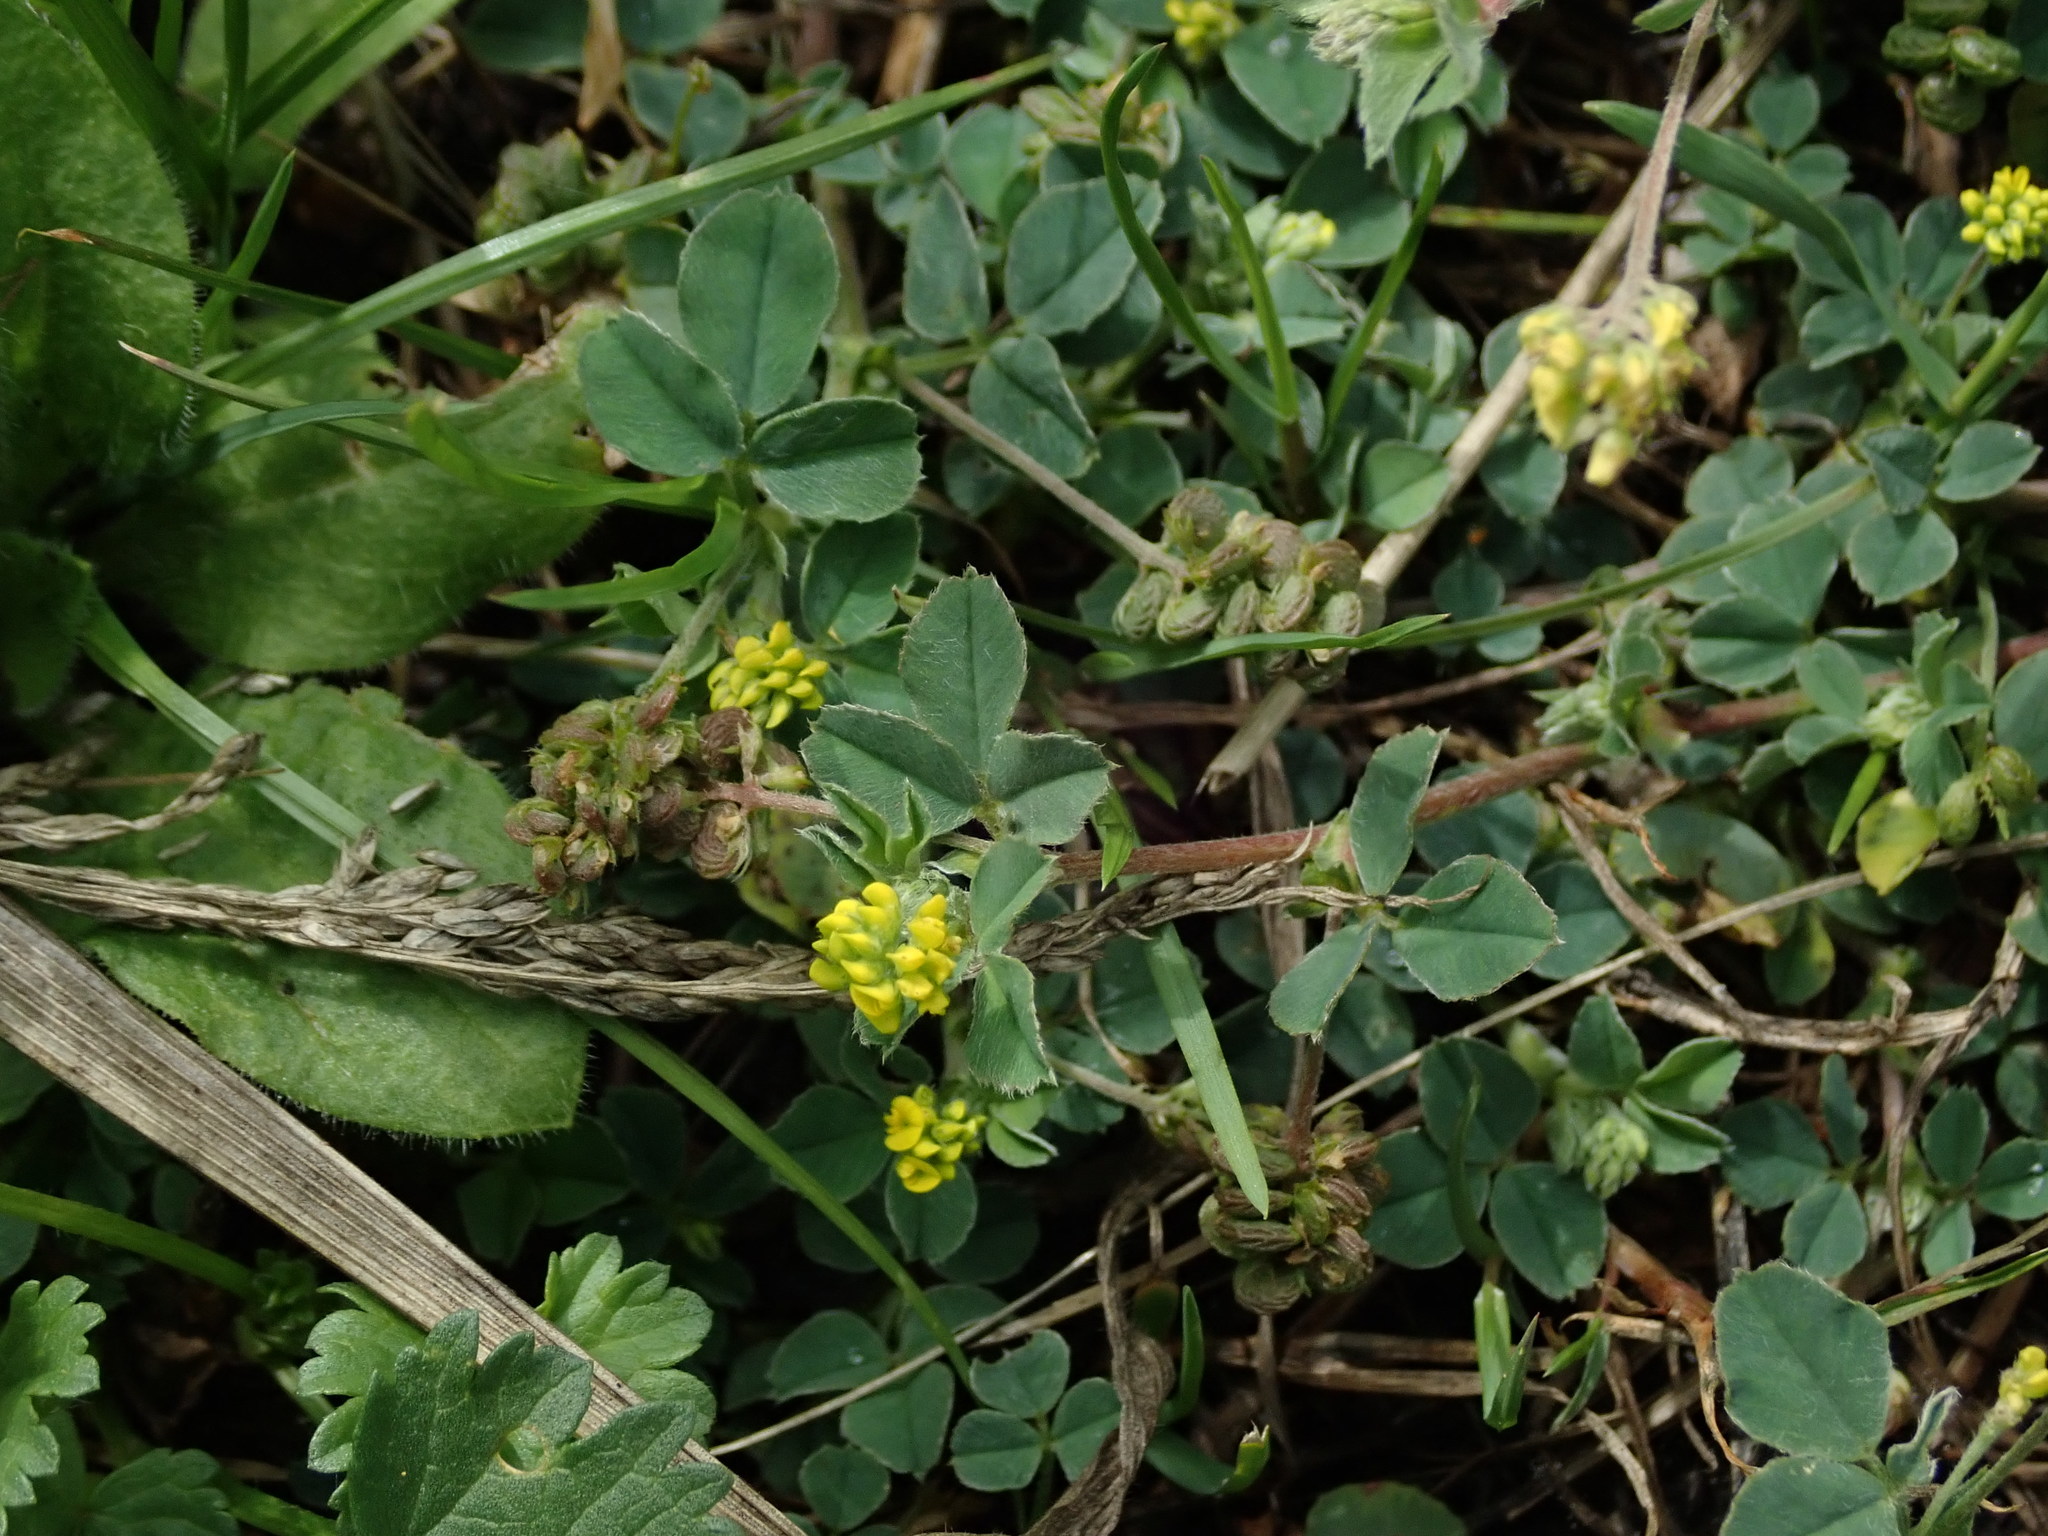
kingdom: Plantae
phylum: Tracheophyta
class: Magnoliopsida
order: Fabales
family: Fabaceae
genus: Medicago
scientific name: Medicago lupulina
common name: Black medick
